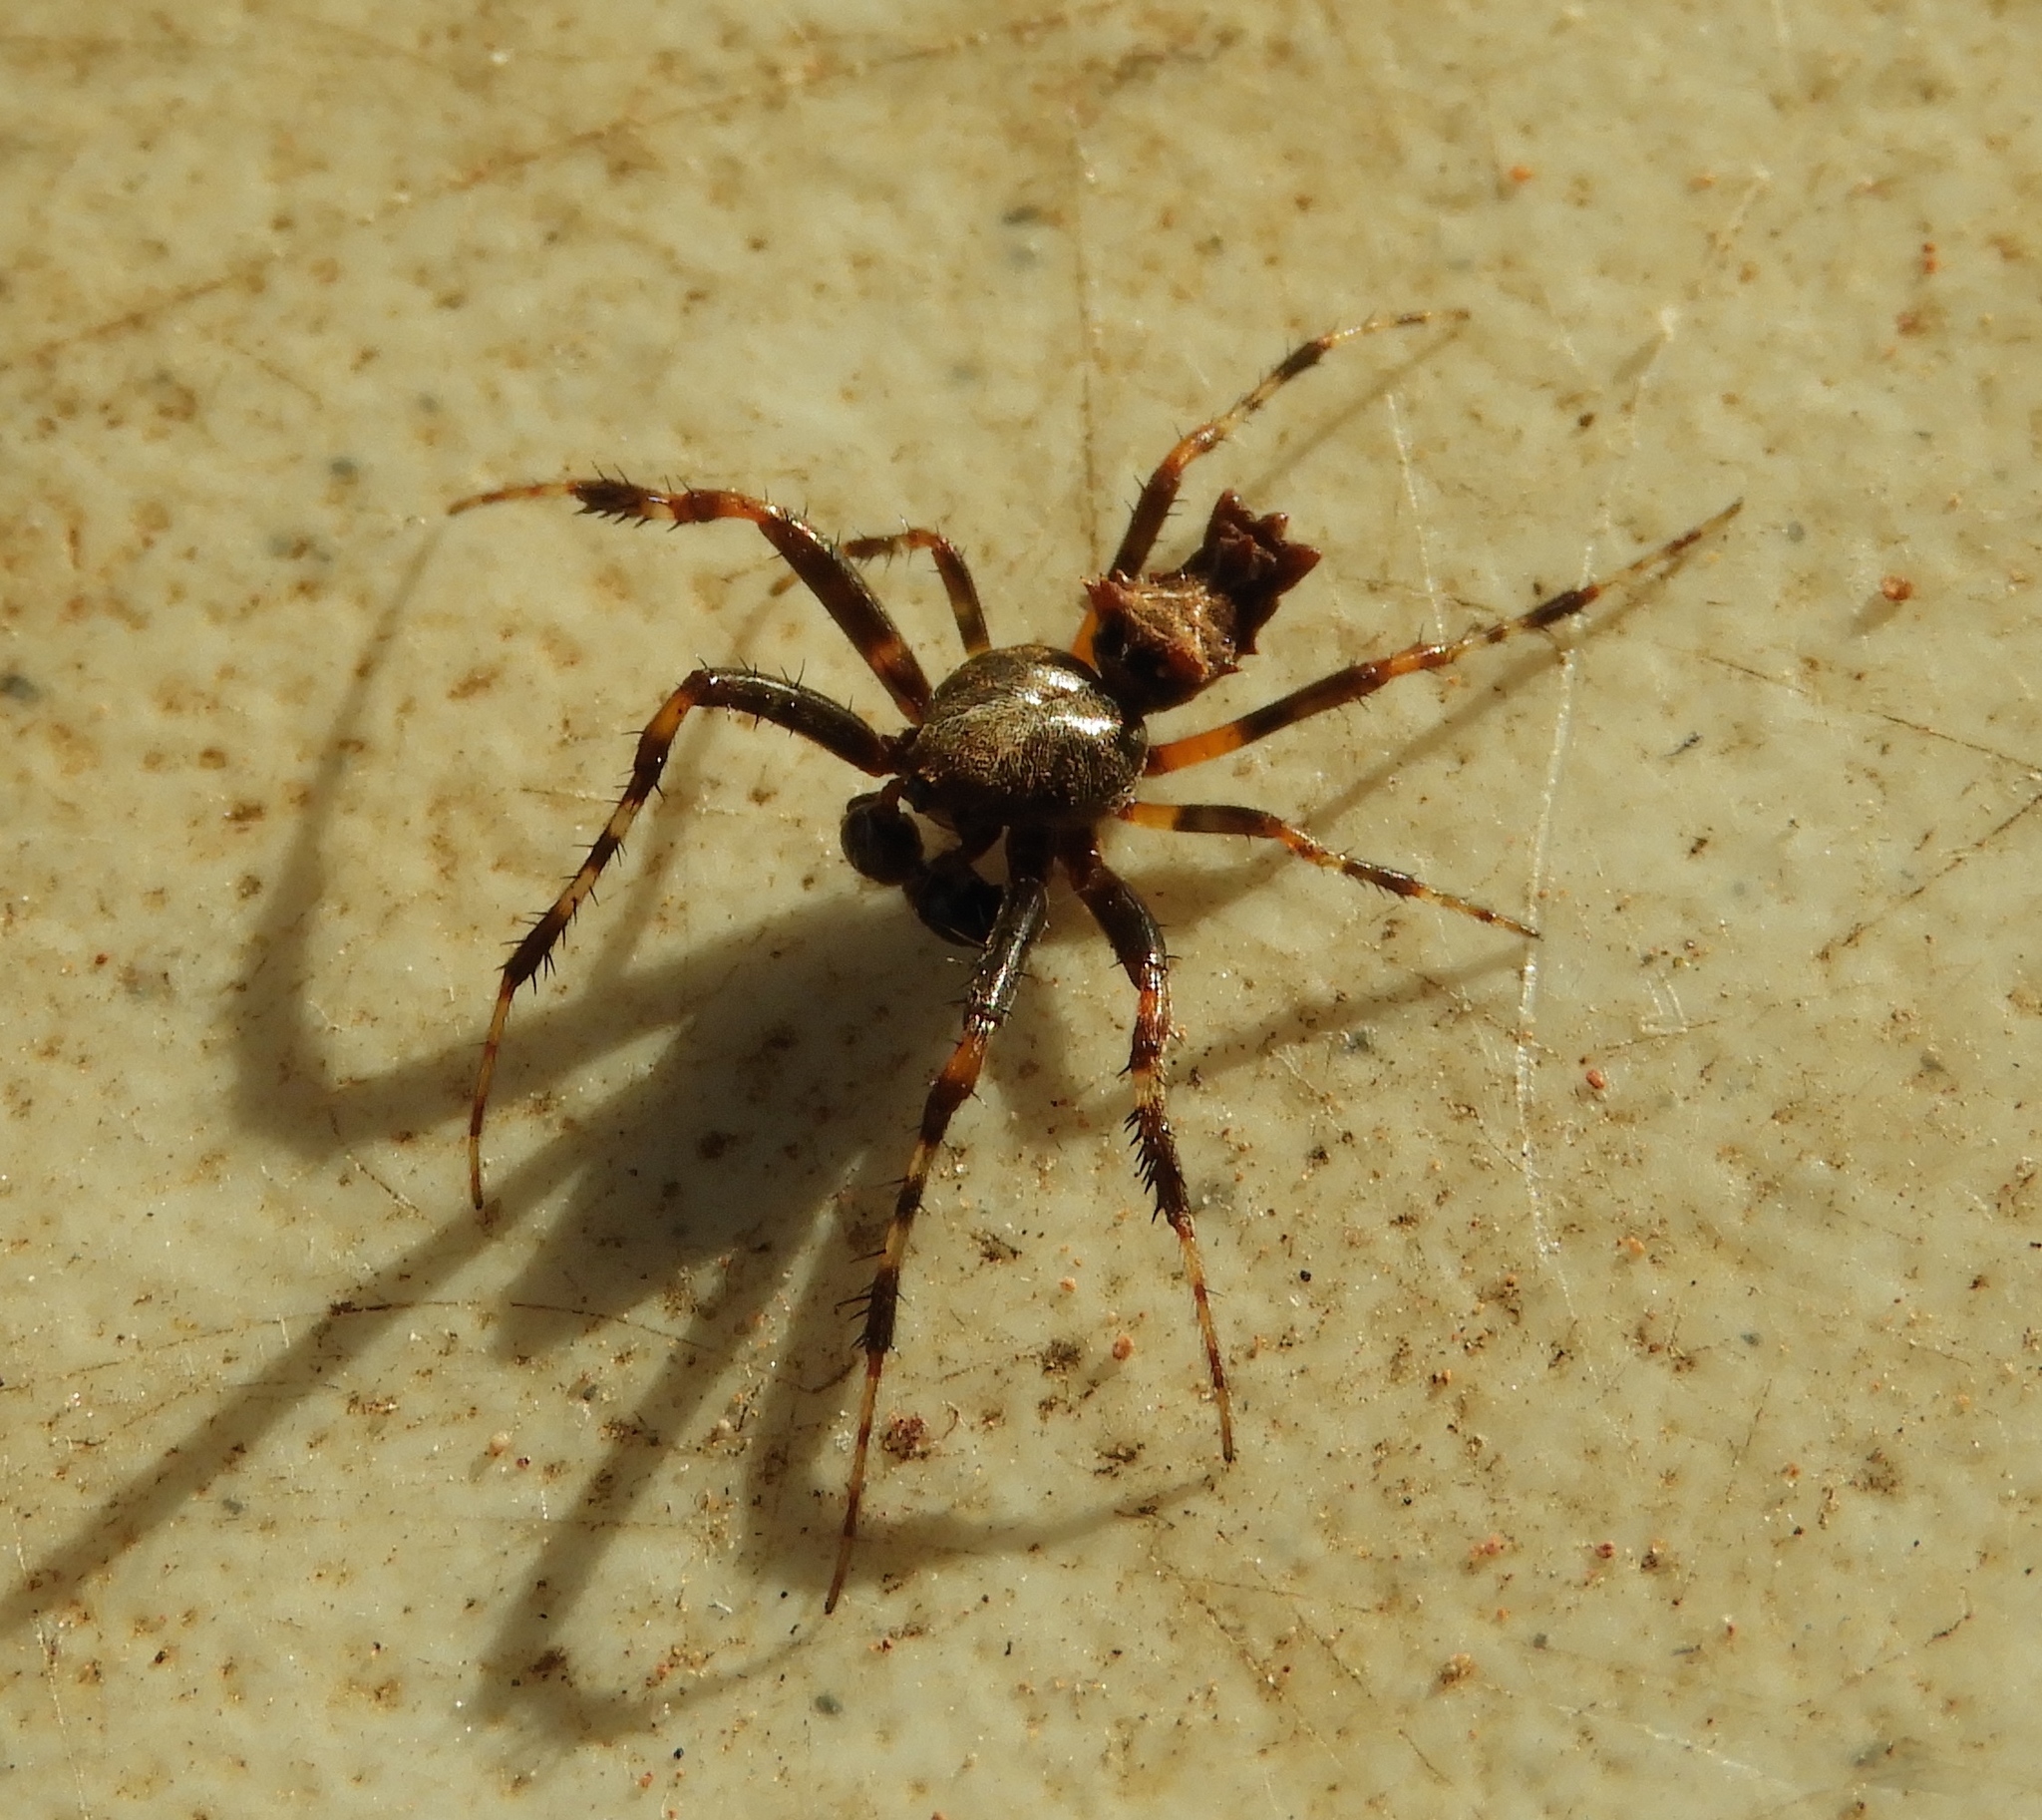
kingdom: Animalia
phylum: Arthropoda
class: Arachnida
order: Araneae
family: Araneidae
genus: Wagneriana
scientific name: Wagneriana
